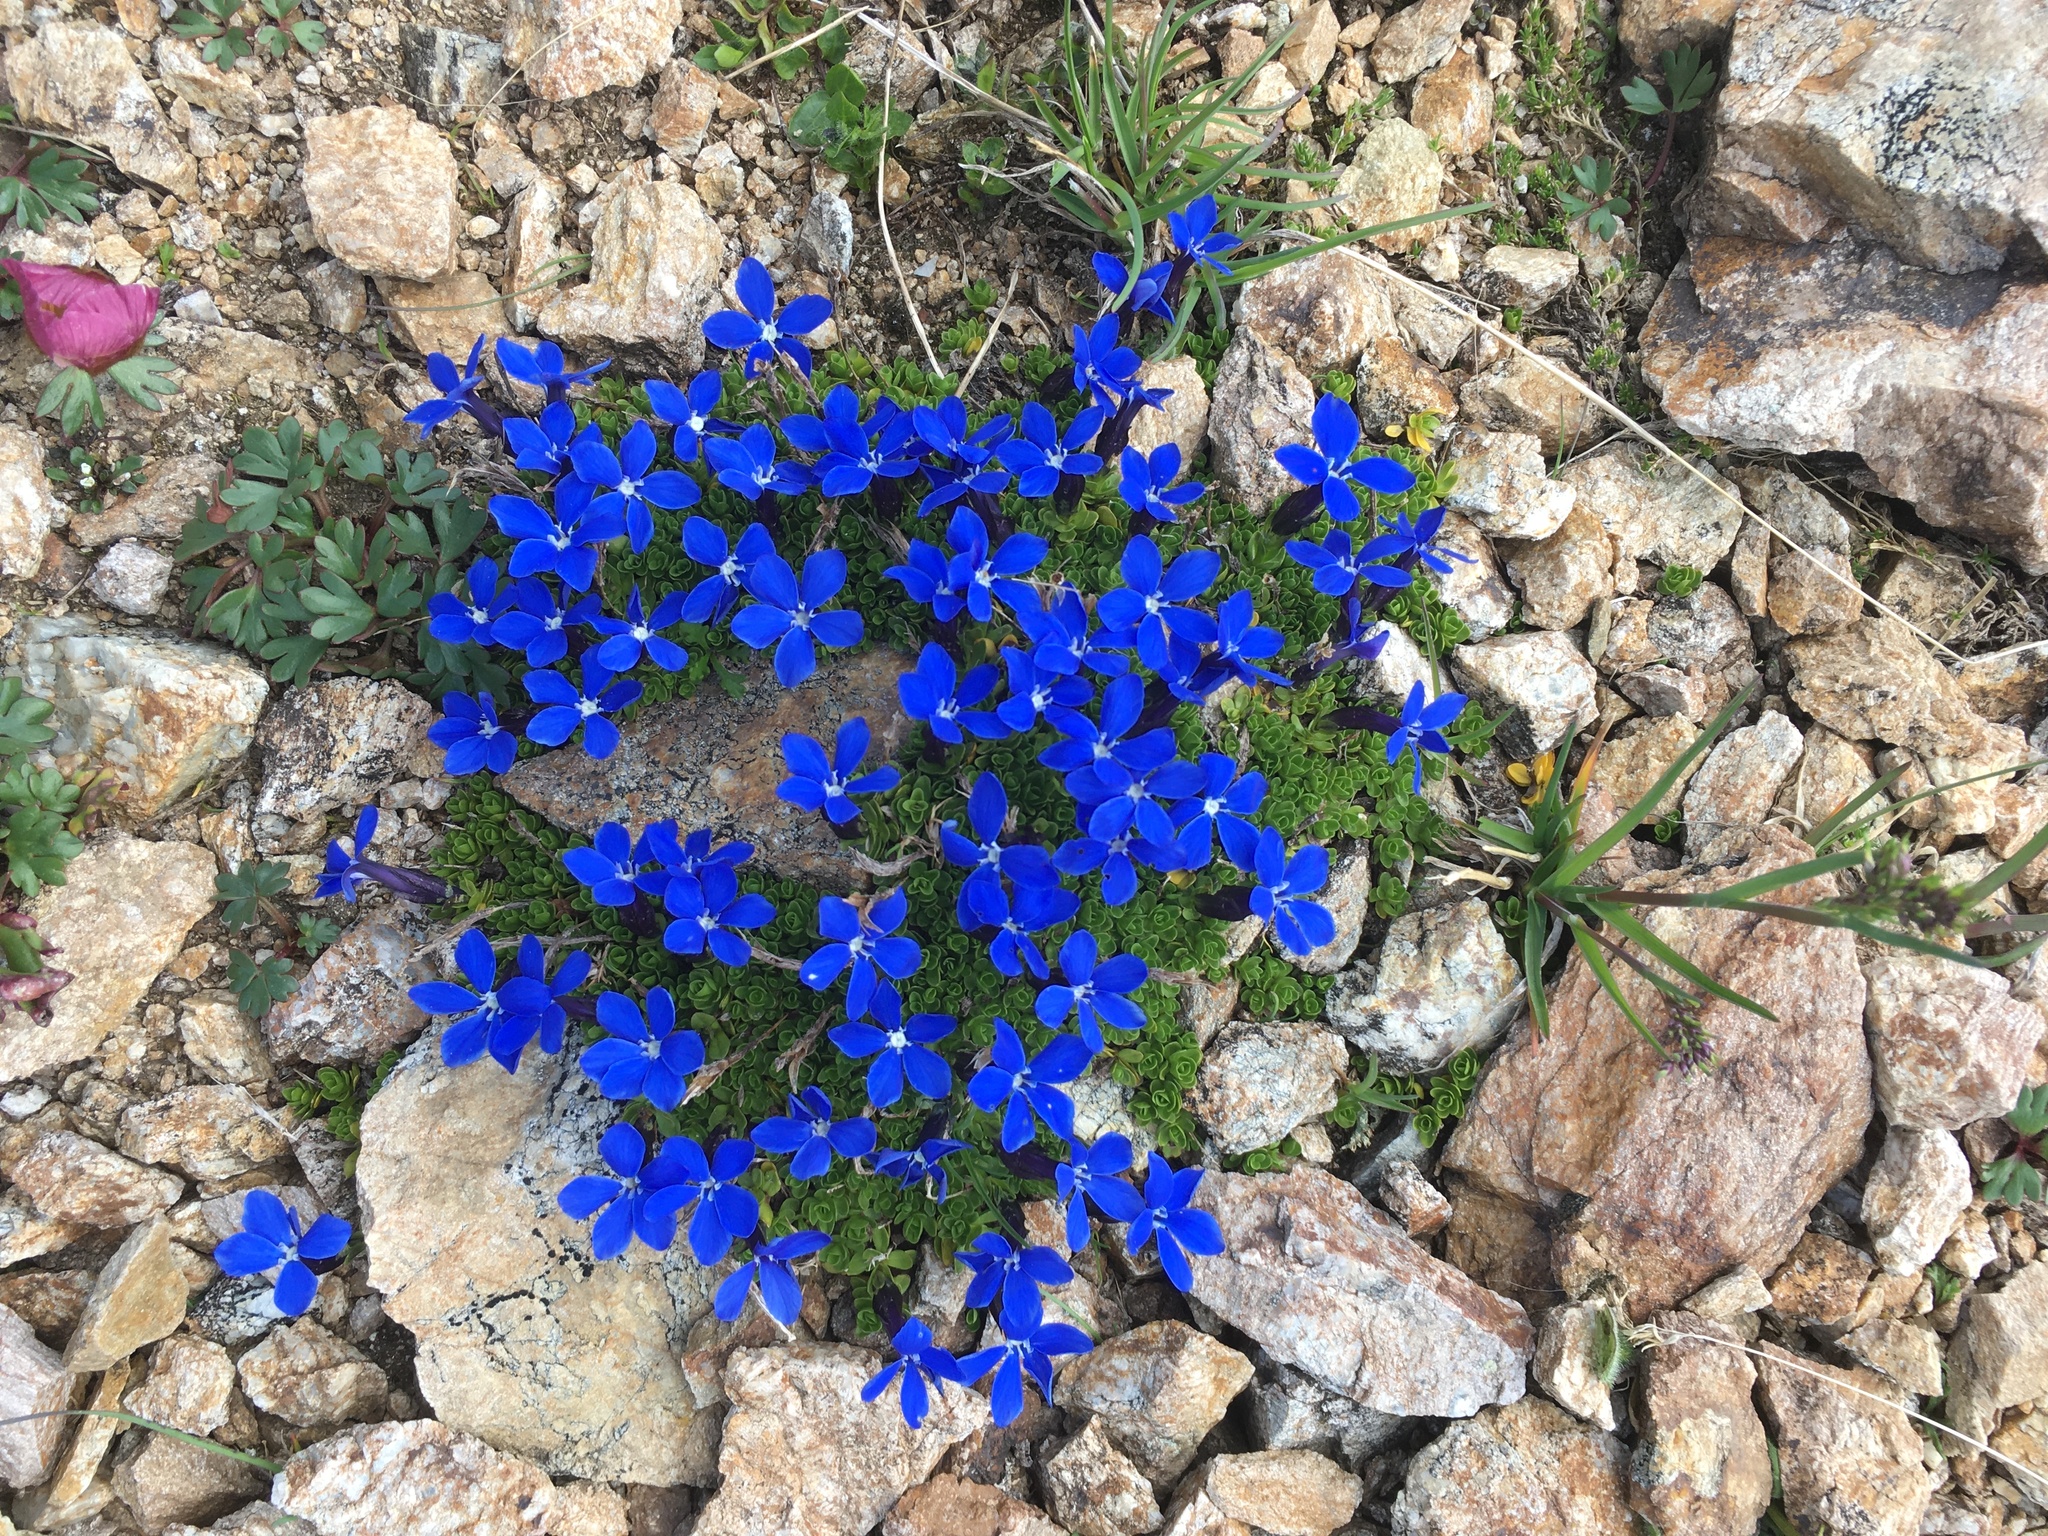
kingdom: Plantae
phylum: Tracheophyta
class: Magnoliopsida
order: Gentianales
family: Gentianaceae
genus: Gentiana
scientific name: Gentiana bavarica
